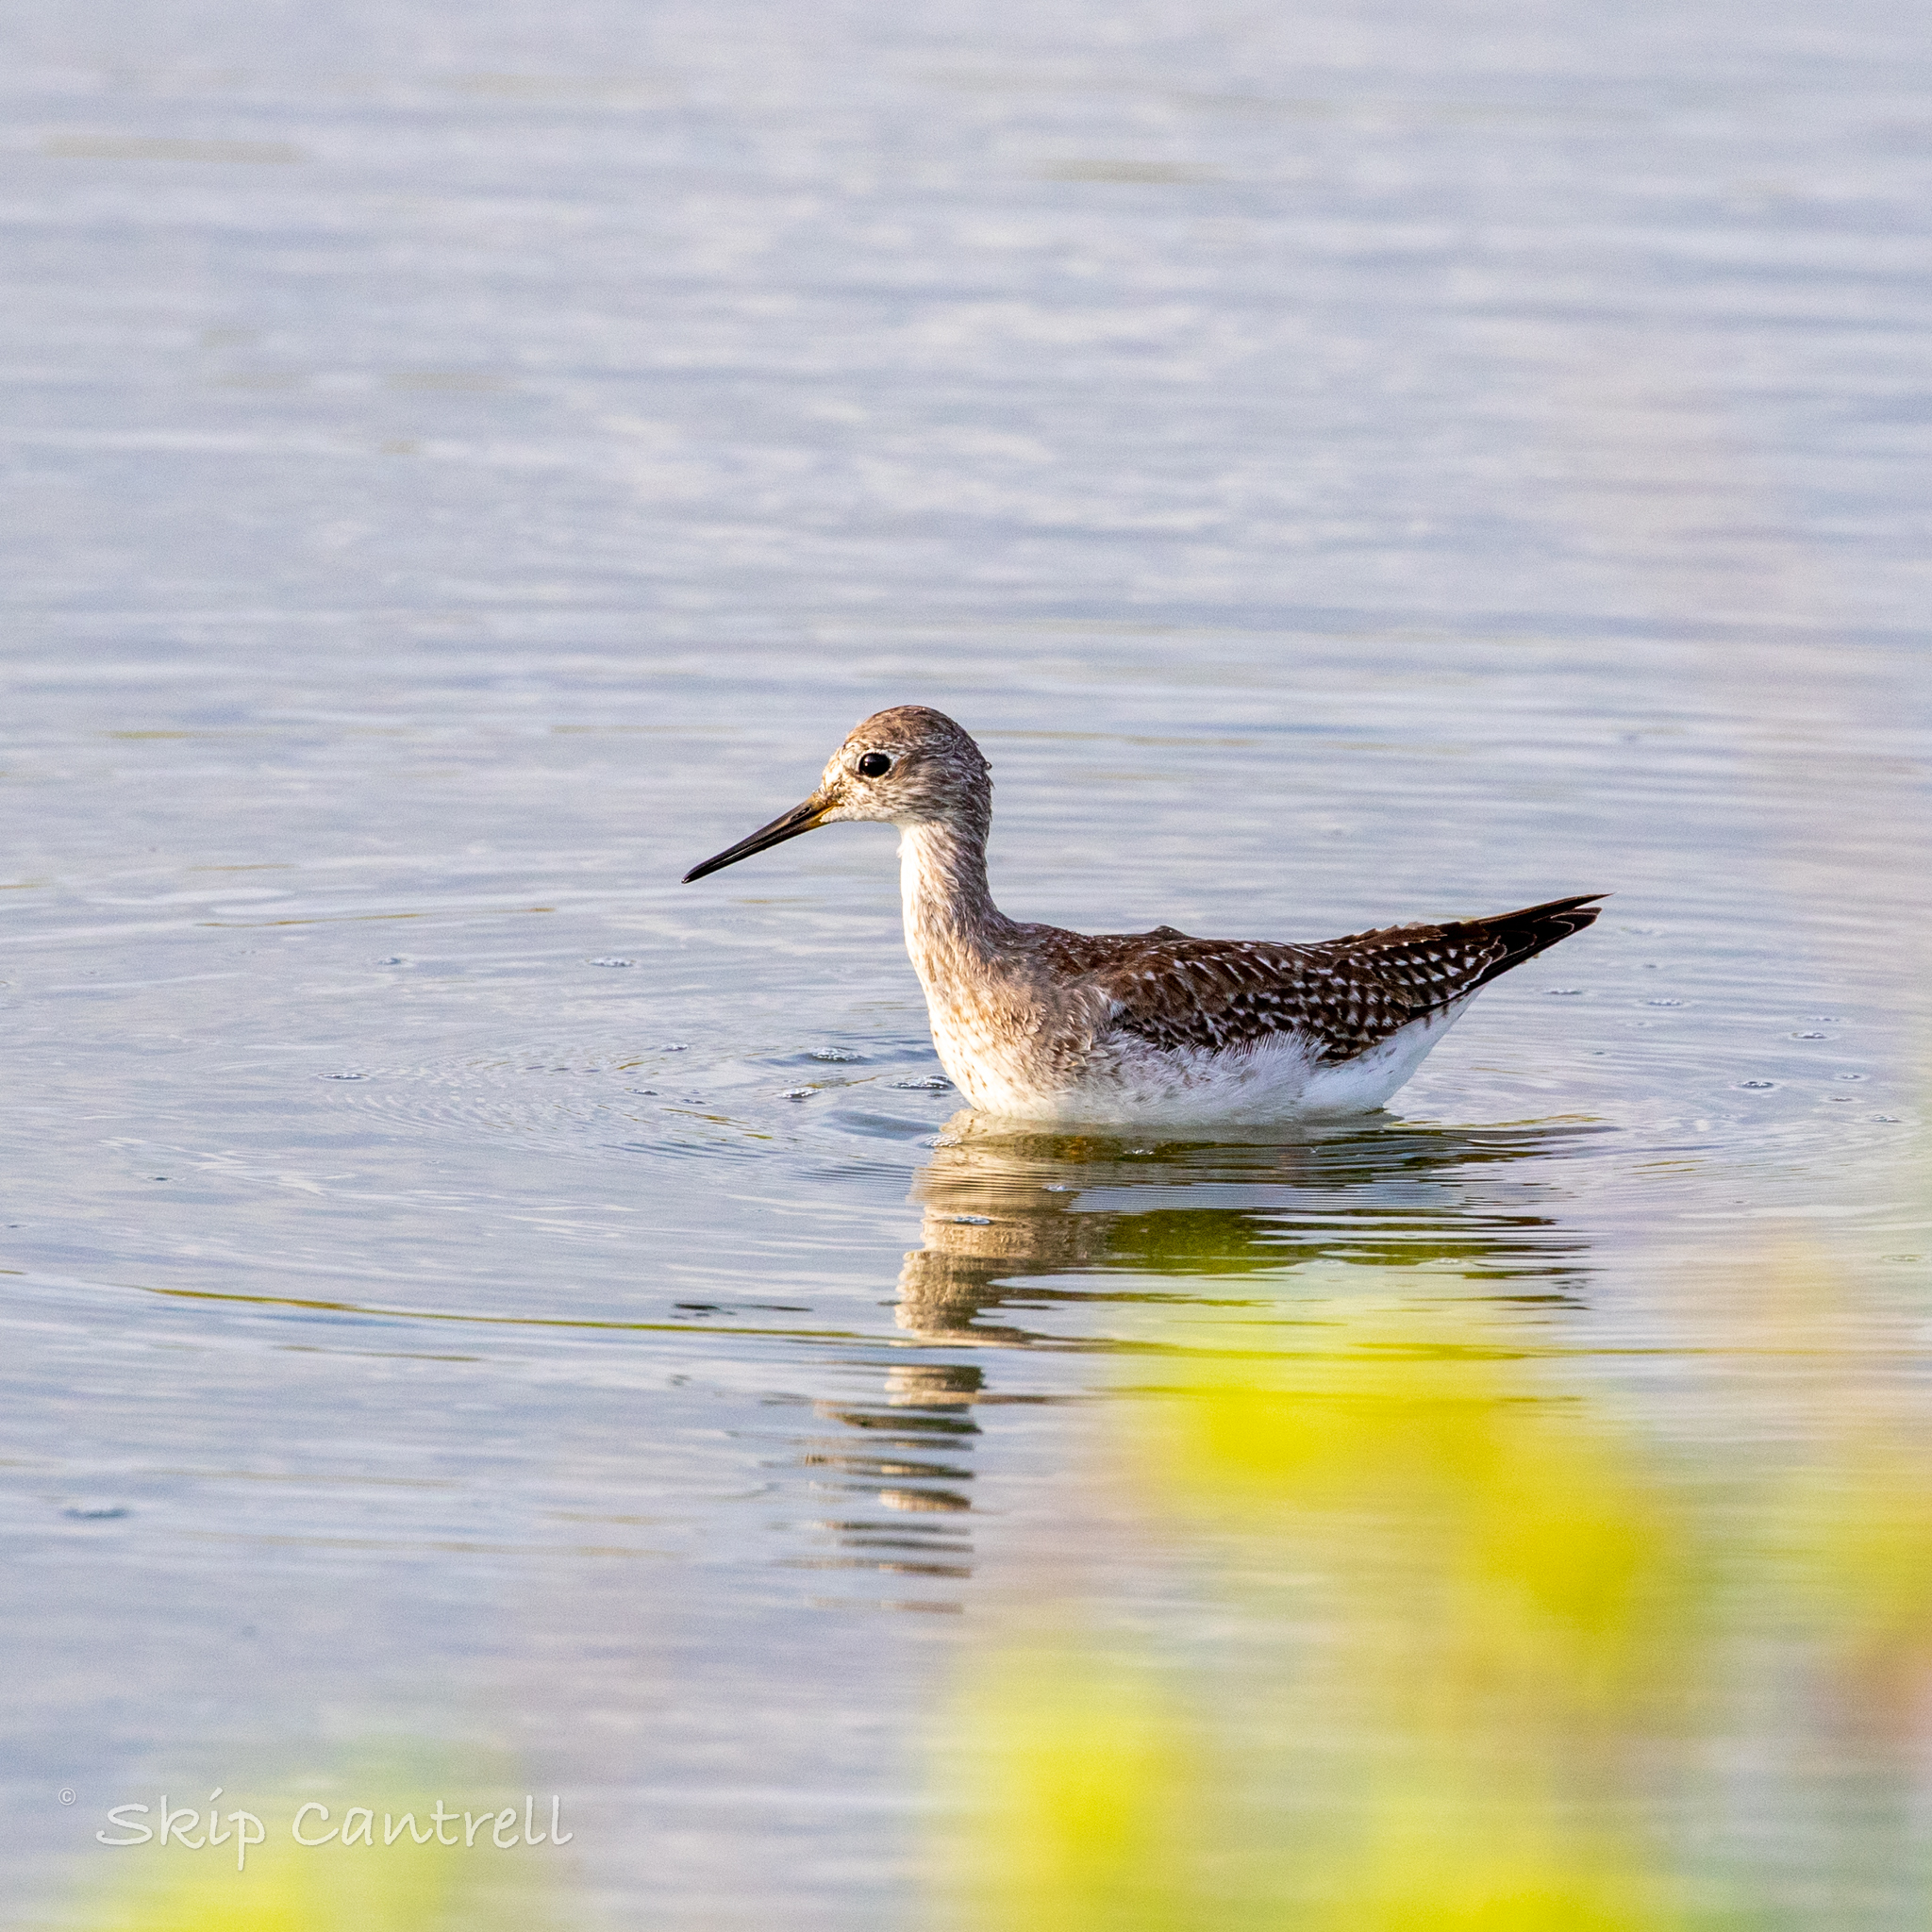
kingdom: Animalia
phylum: Chordata
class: Aves
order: Charadriiformes
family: Scolopacidae
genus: Tringa
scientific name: Tringa flavipes
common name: Lesser yellowlegs
